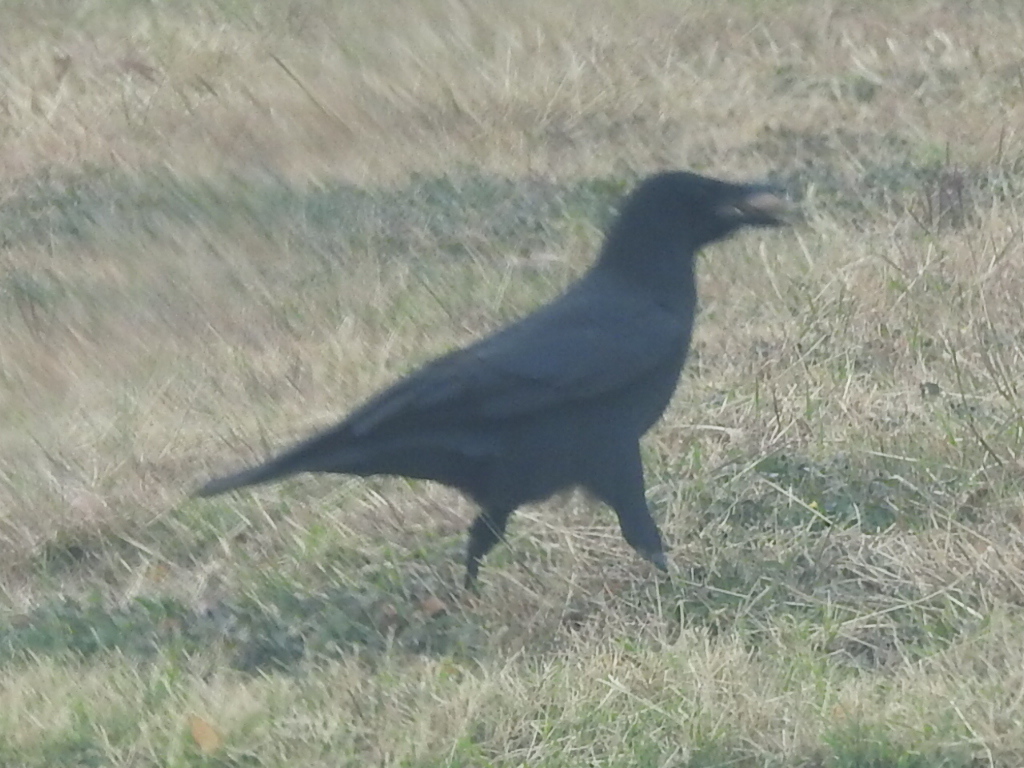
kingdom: Animalia
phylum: Chordata
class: Aves
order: Passeriformes
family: Corvidae
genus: Corvus
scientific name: Corvus brachyrhynchos
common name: American crow
